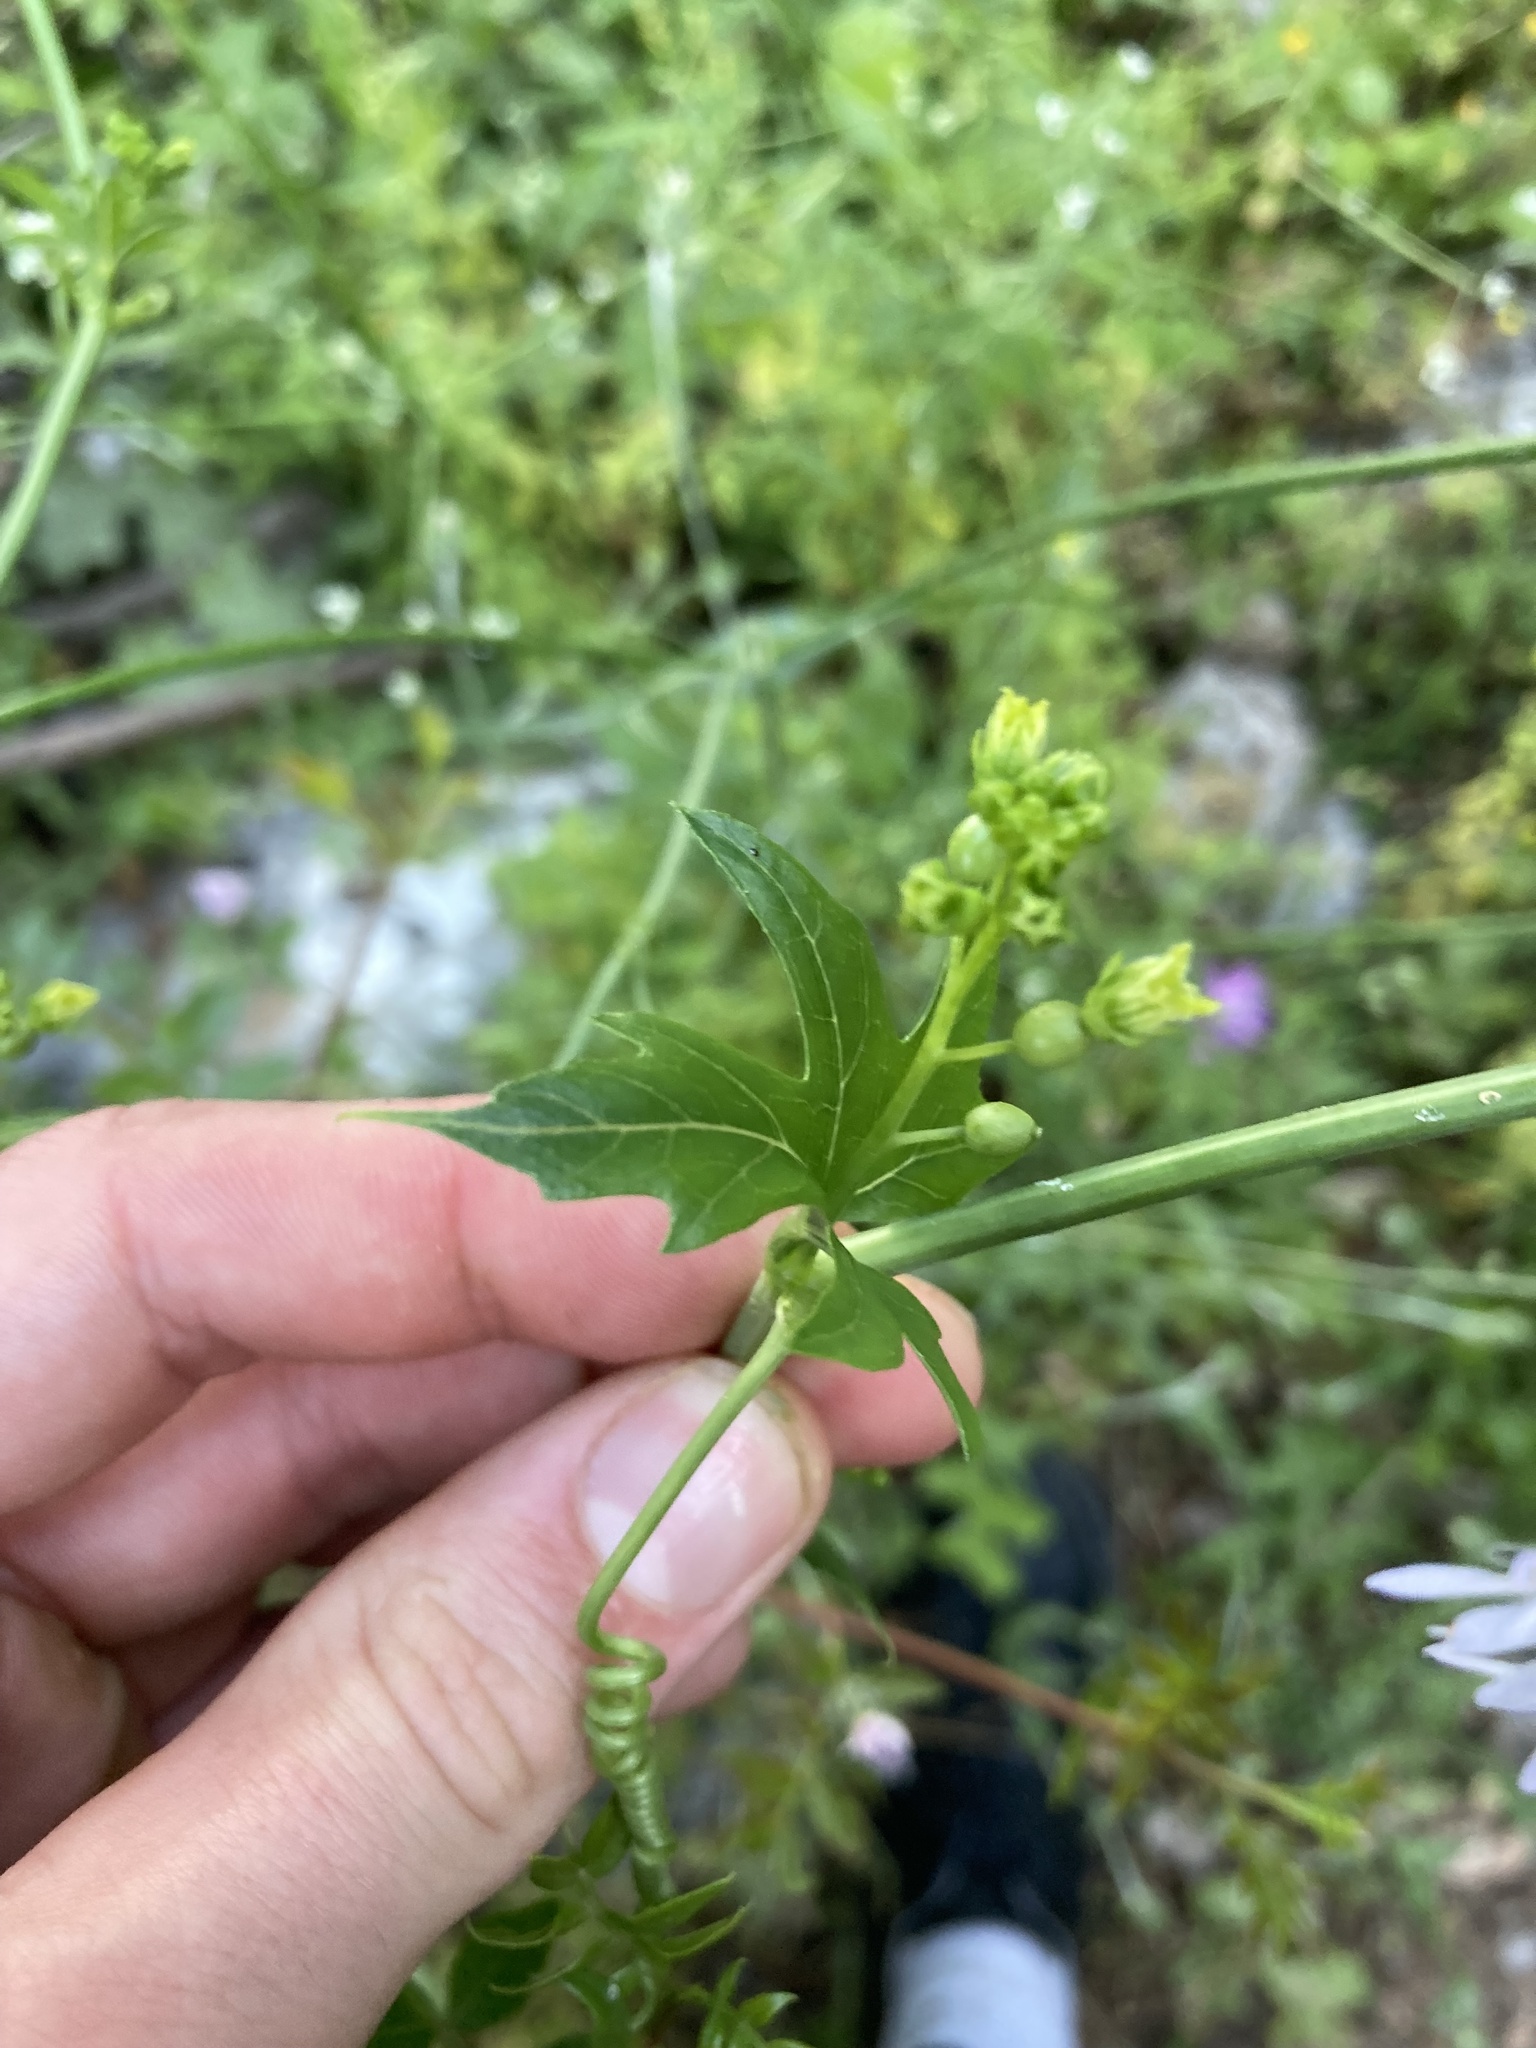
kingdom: Plantae
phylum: Tracheophyta
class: Magnoliopsida
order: Cucurbitales
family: Cucurbitaceae
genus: Bryonia
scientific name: Bryonia cretica
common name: Cretan bryony
